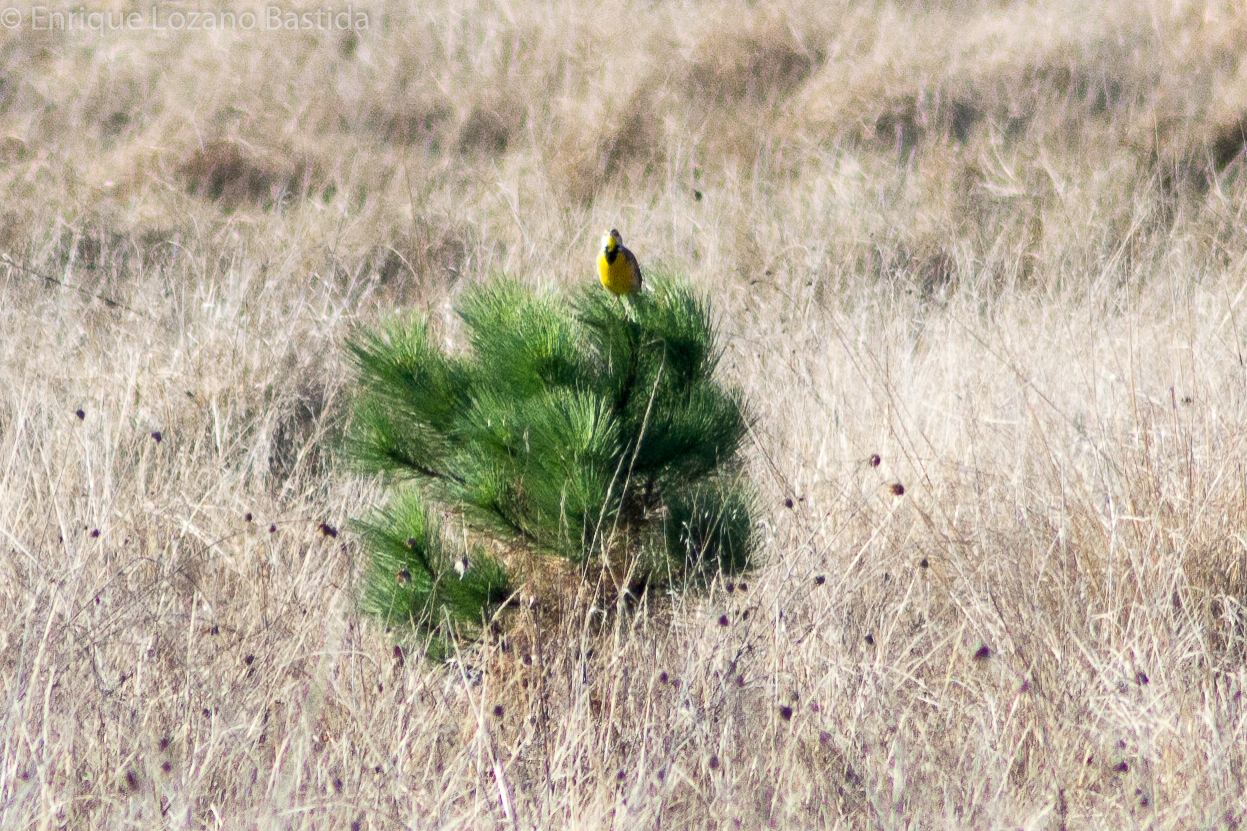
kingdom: Animalia
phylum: Chordata
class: Aves
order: Passeriformes
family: Icteridae
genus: Sturnella
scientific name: Sturnella lilianae
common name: Lilian's meadowlark
